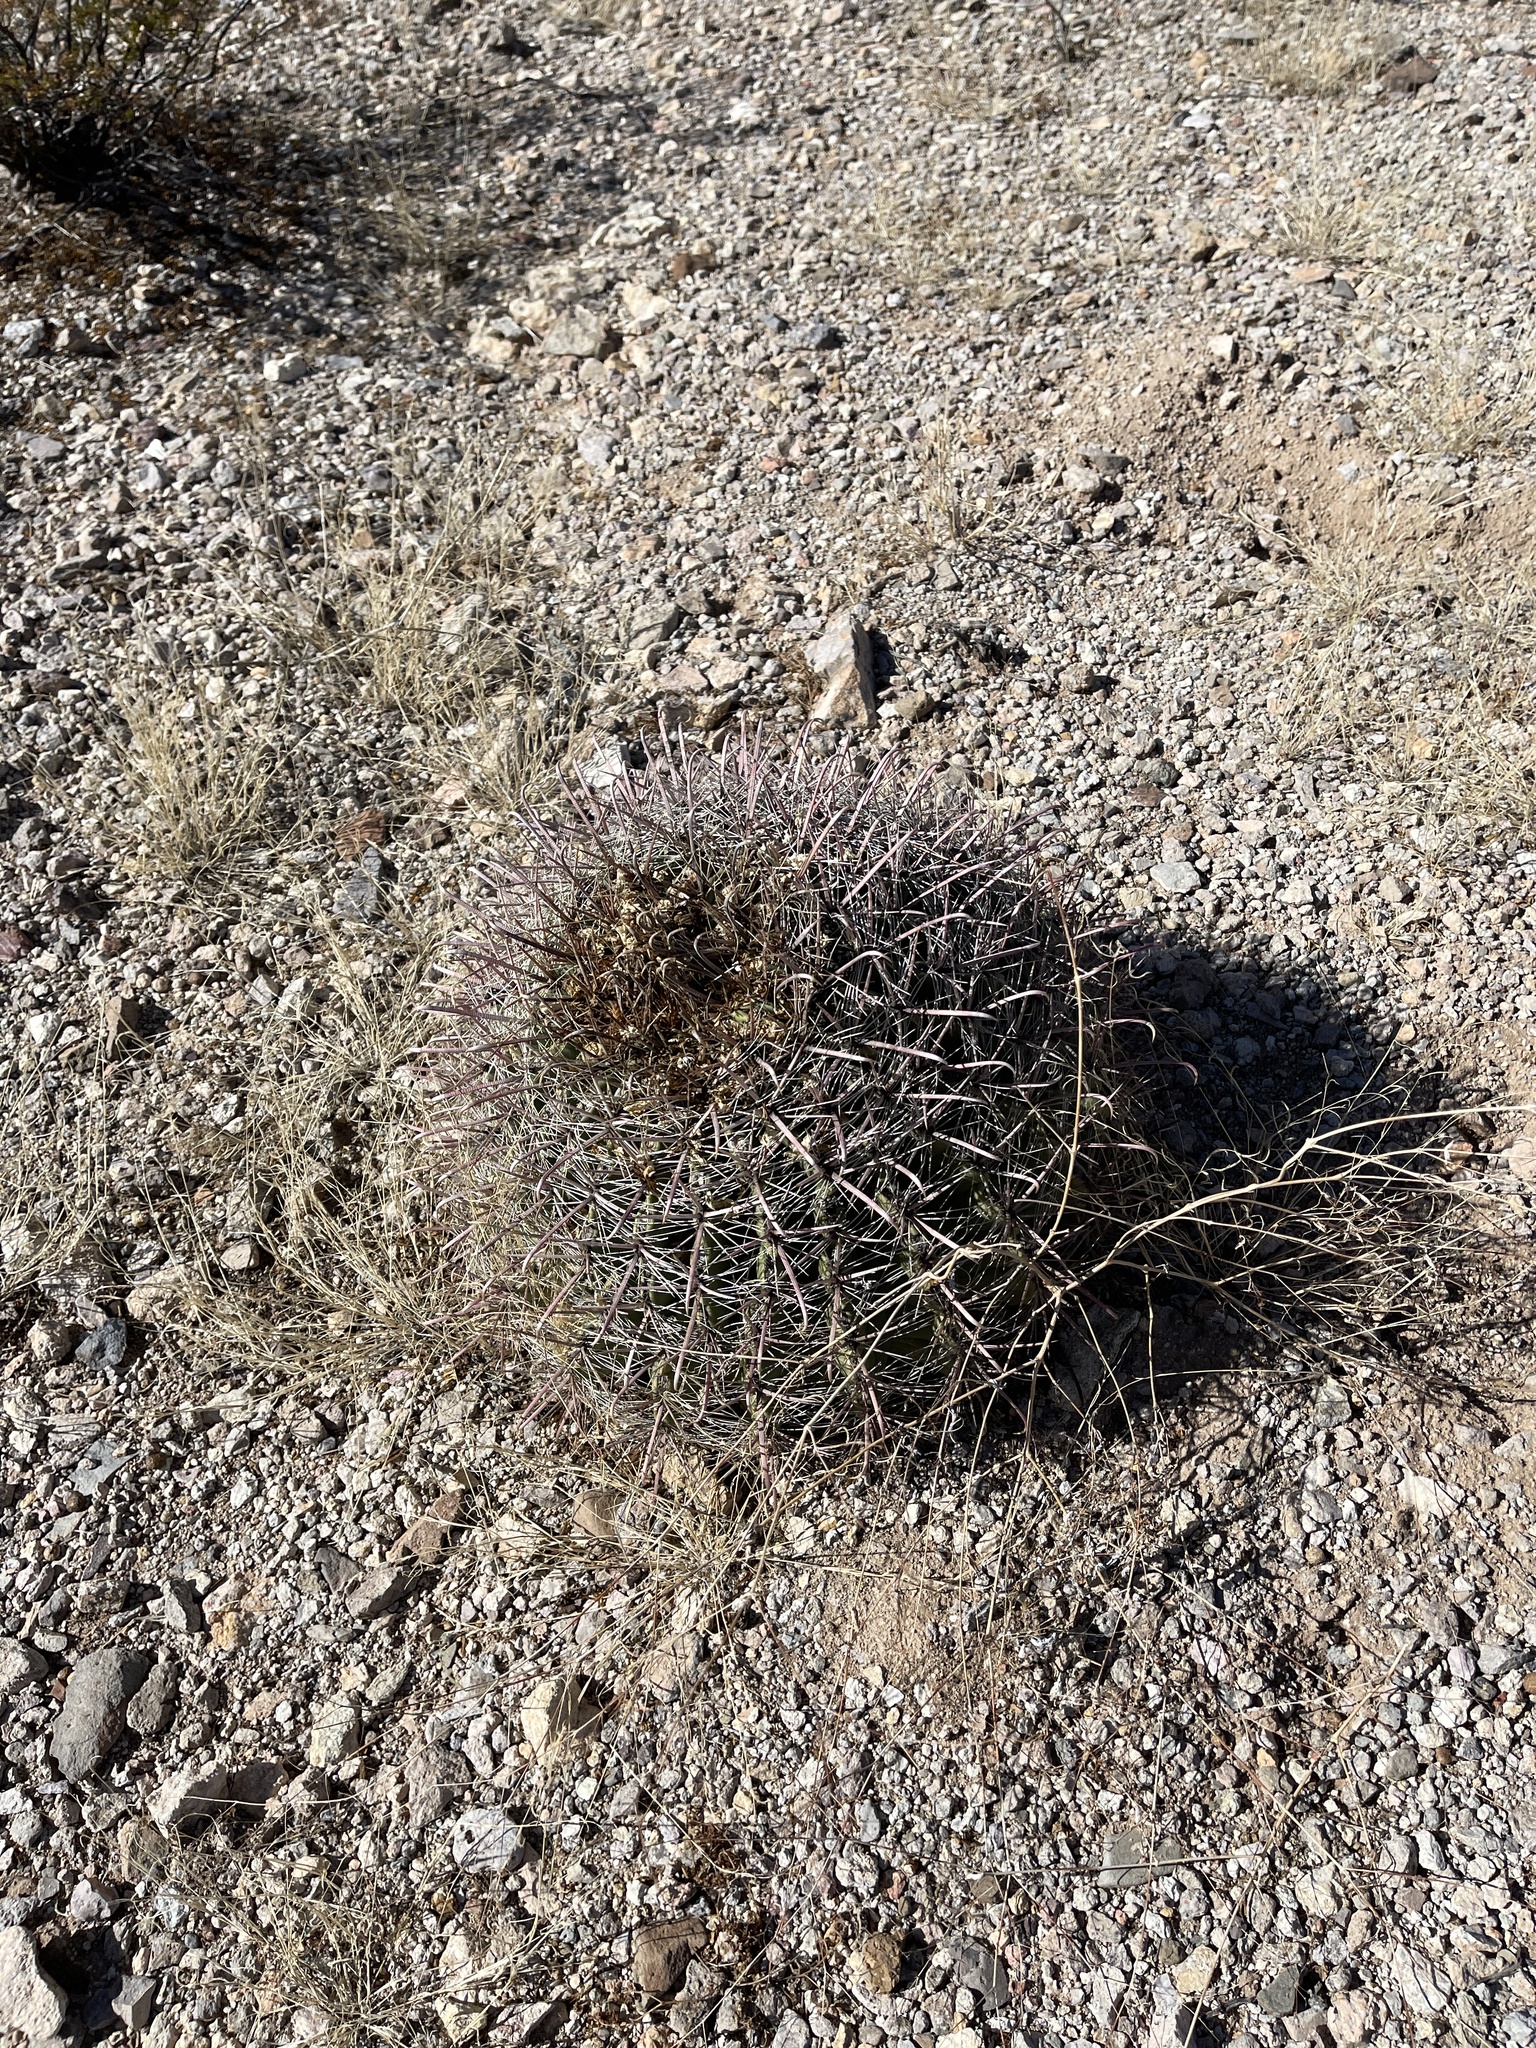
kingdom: Plantae
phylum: Tracheophyta
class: Magnoliopsida
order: Caryophyllales
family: Cactaceae
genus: Ferocactus
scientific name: Ferocactus wislizeni
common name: Candy barrel cactus
